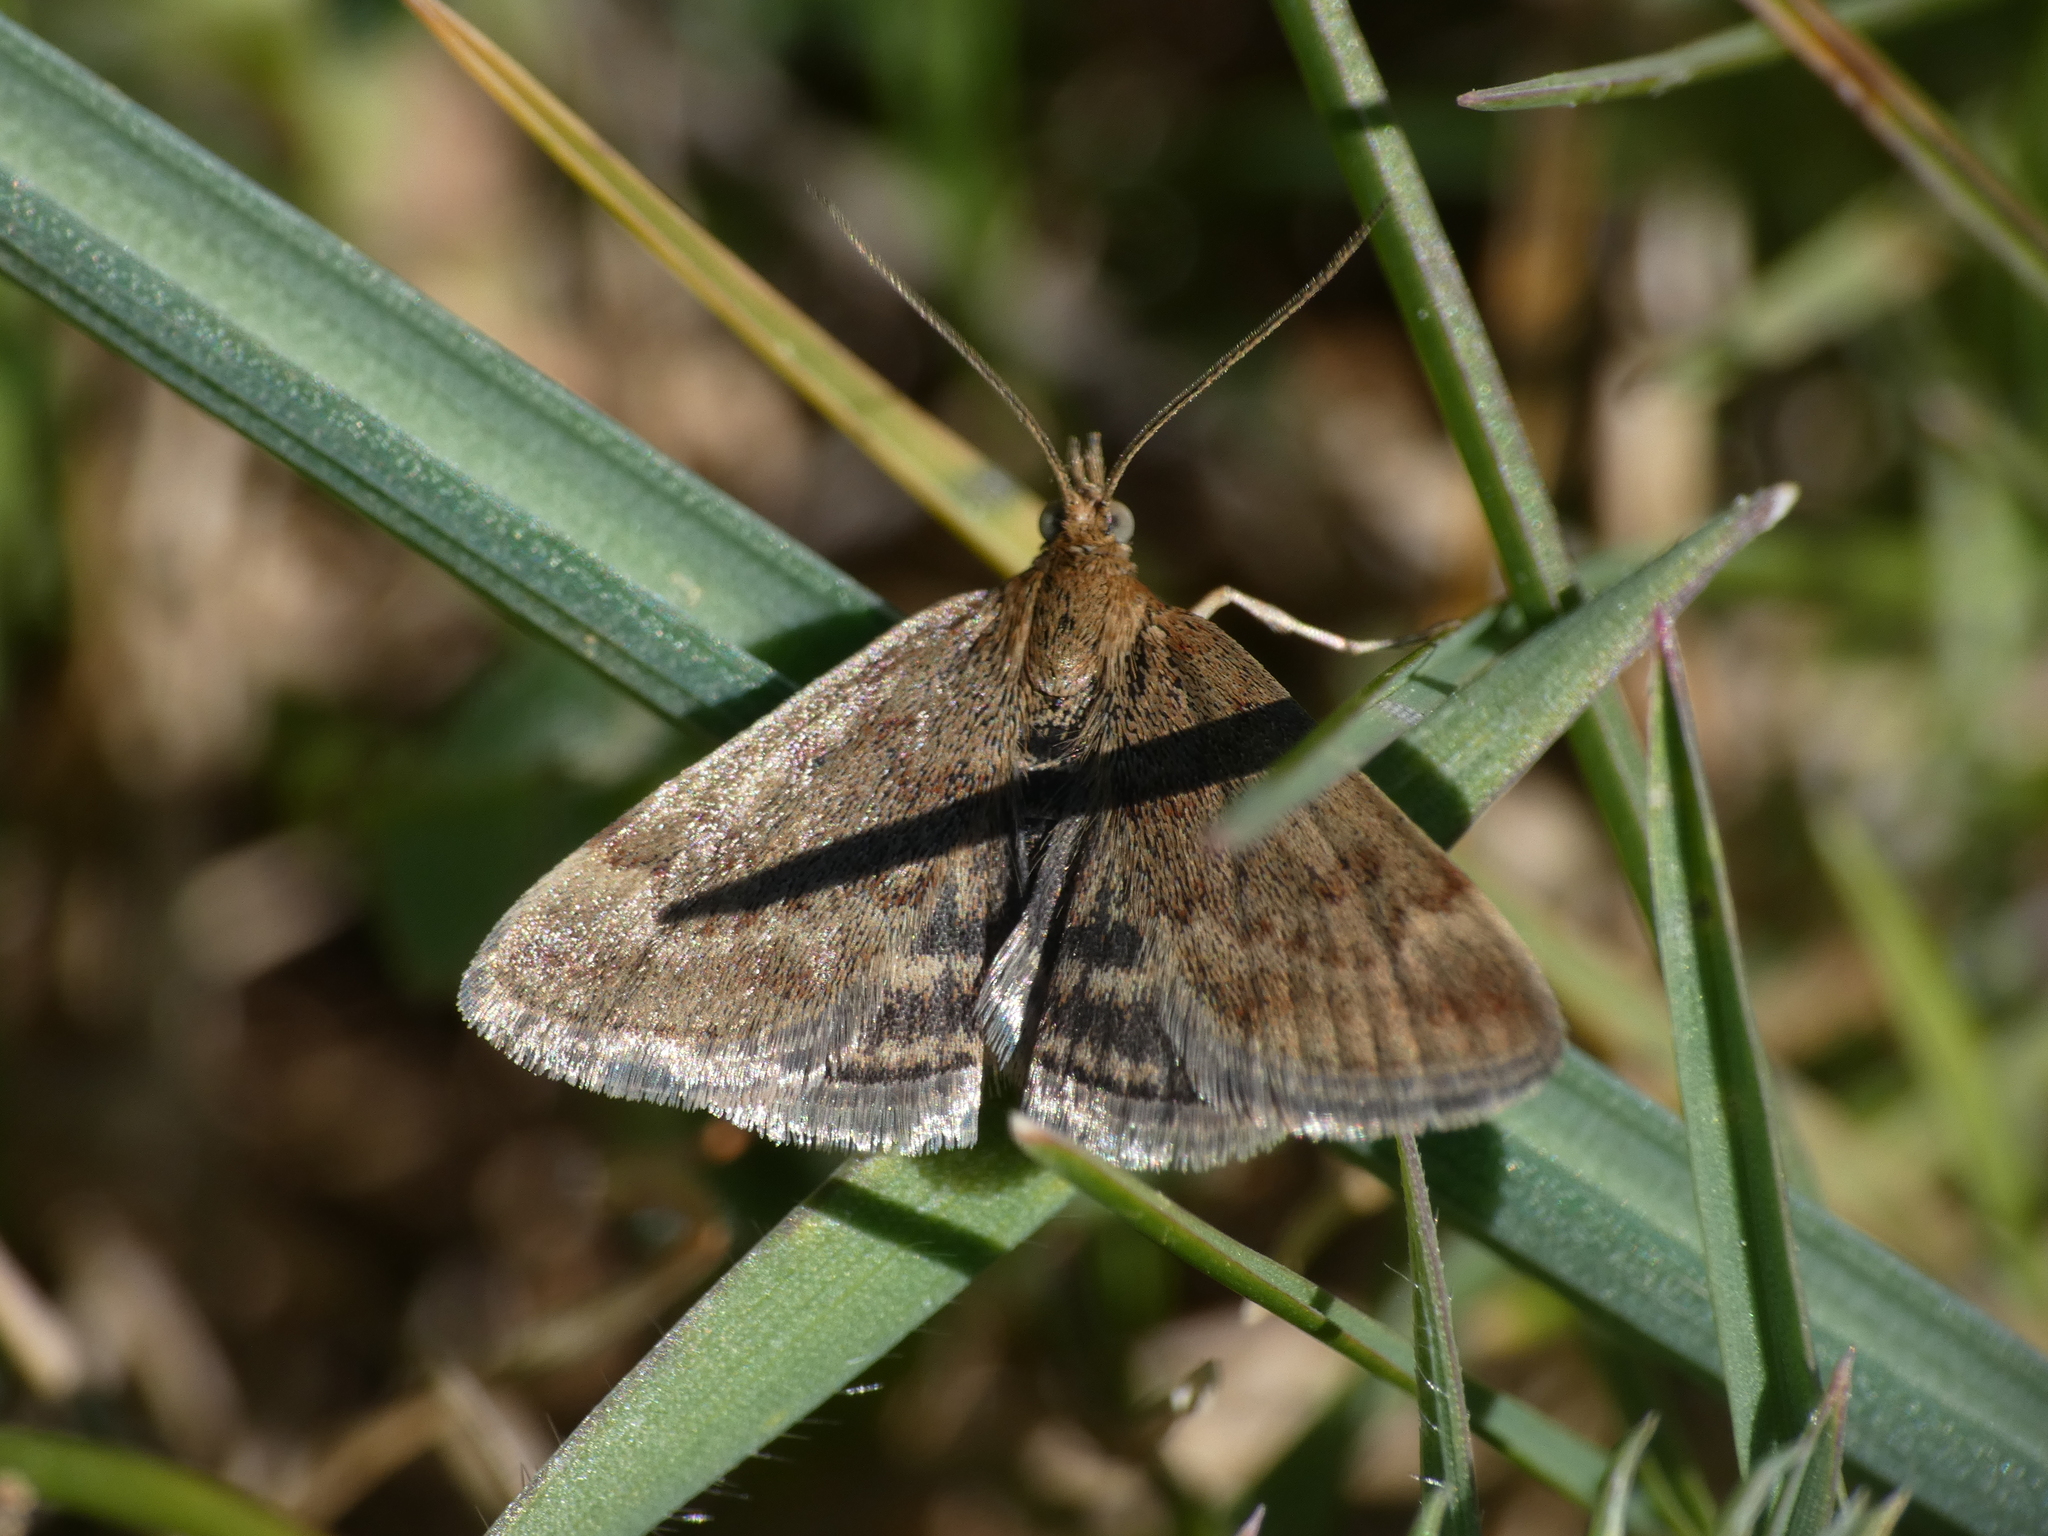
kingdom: Animalia
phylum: Arthropoda
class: Insecta
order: Lepidoptera
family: Crambidae
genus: Pyrausta
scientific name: Pyrausta despicata
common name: Straw-barred pearl
